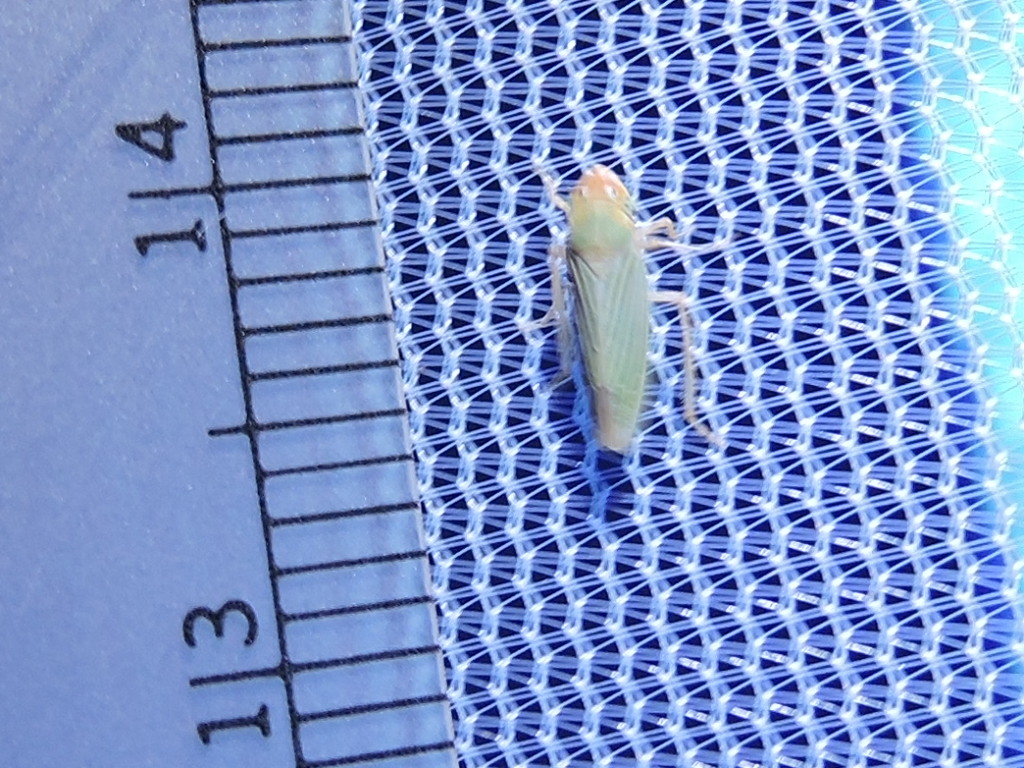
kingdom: Animalia
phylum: Arthropoda
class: Insecta
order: Hemiptera
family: Cicadellidae
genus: Xyphon
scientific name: Xyphon flaviceps
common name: Yellowheaded leafhopper
